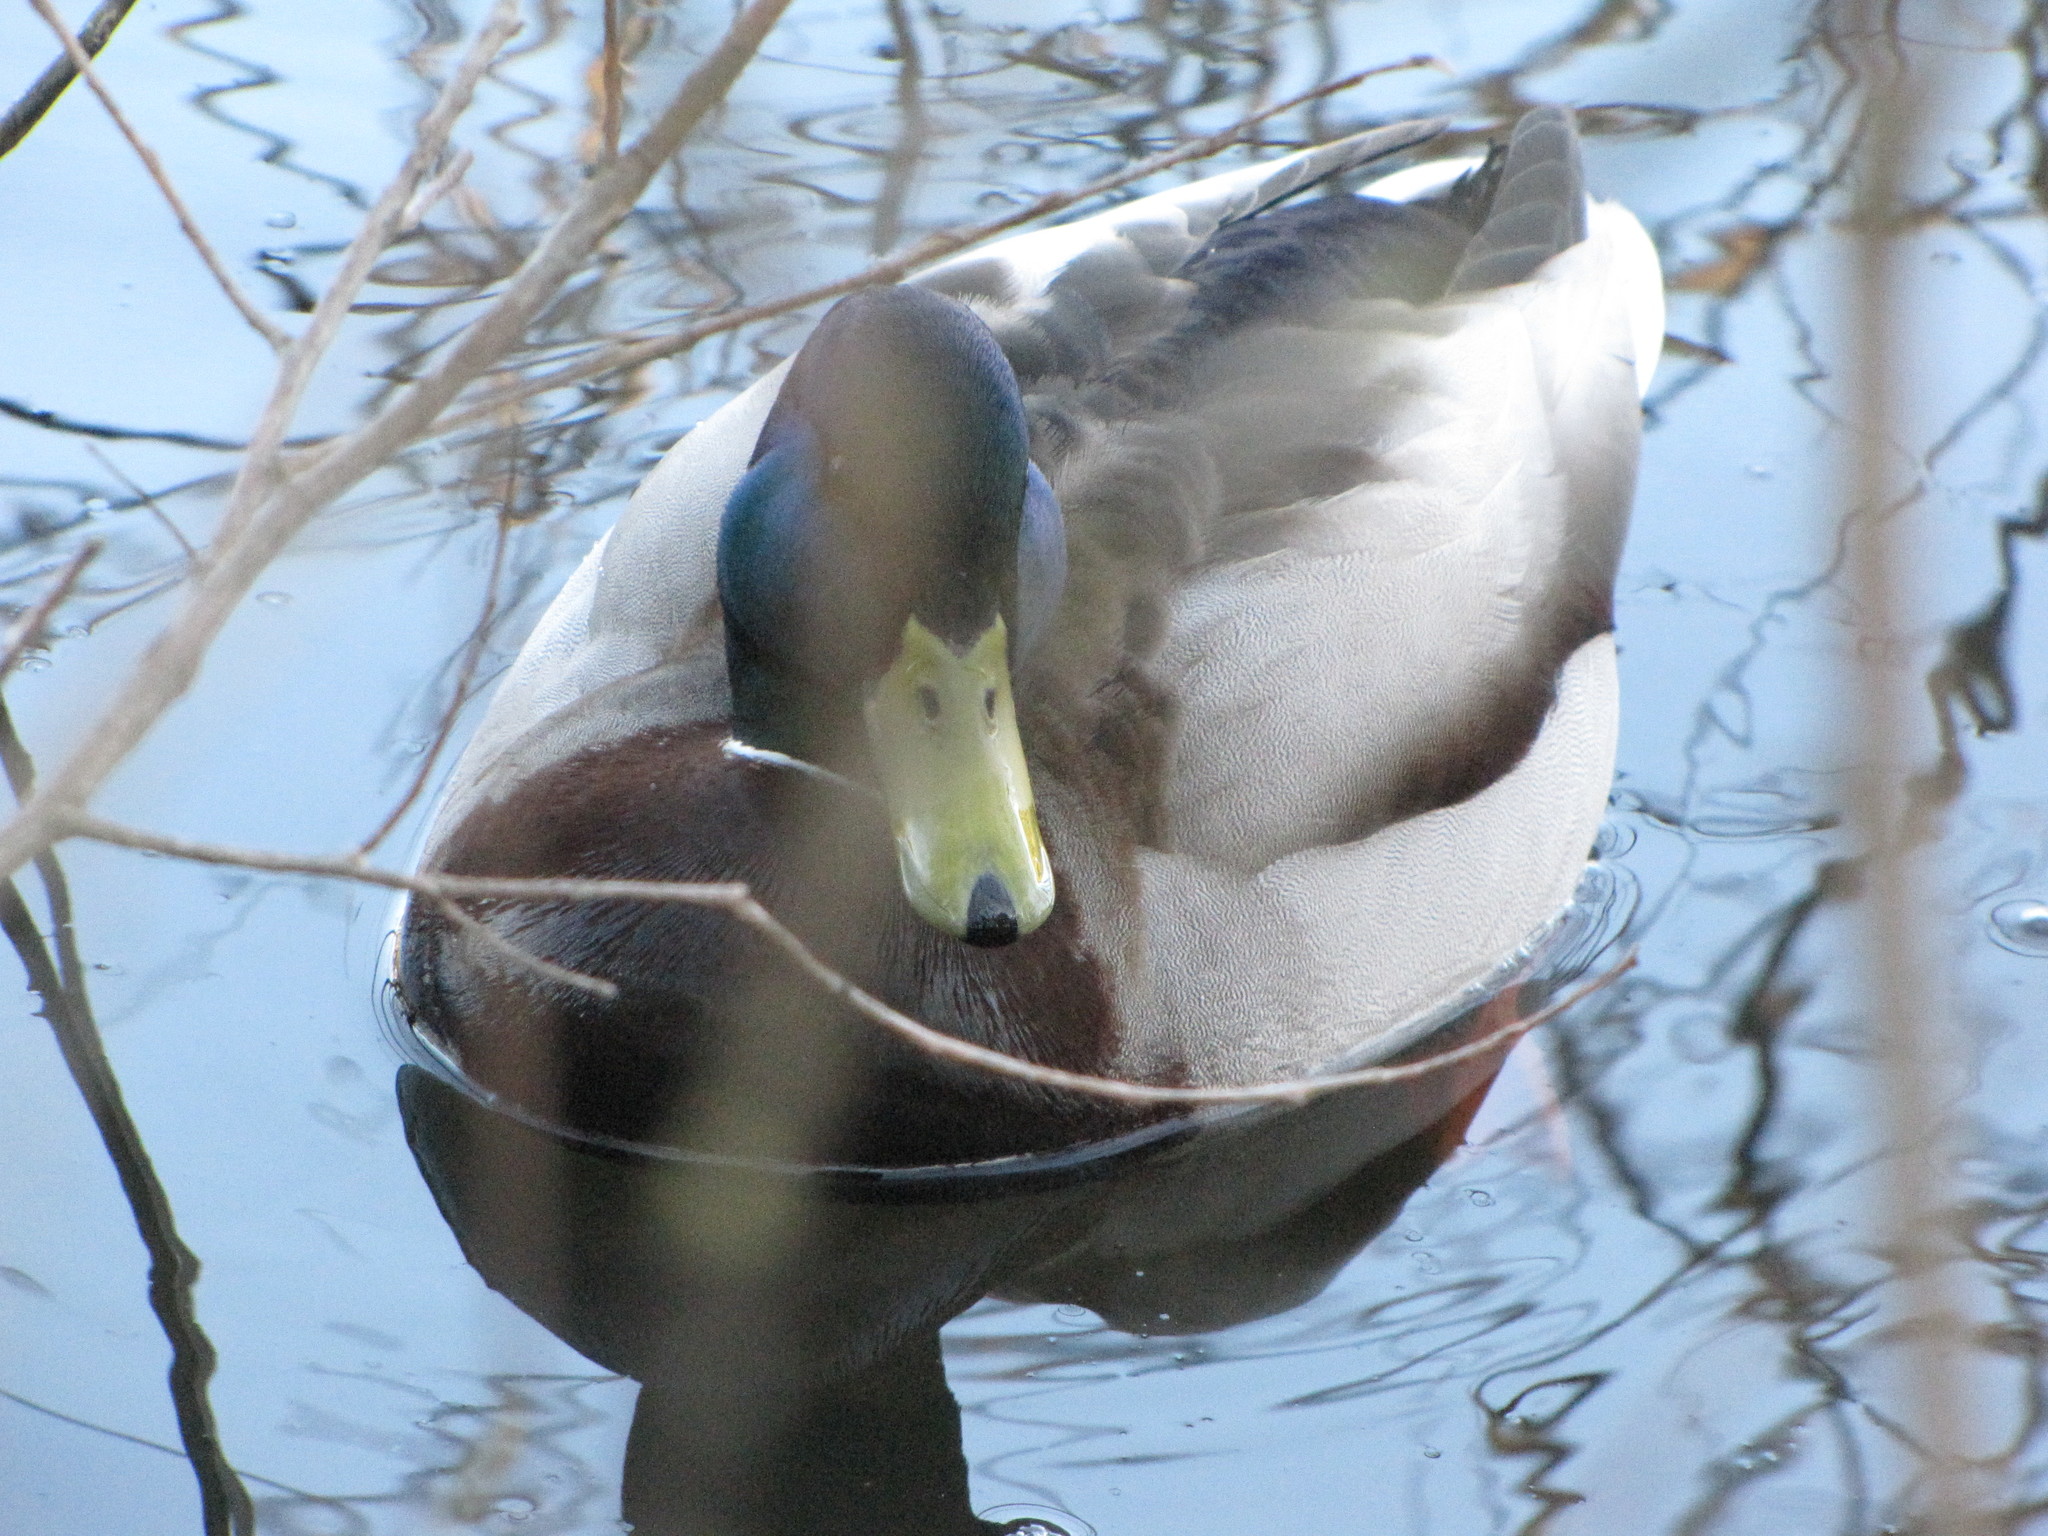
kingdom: Animalia
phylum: Chordata
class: Aves
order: Anseriformes
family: Anatidae
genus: Anas
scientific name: Anas platyrhynchos
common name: Mallard
